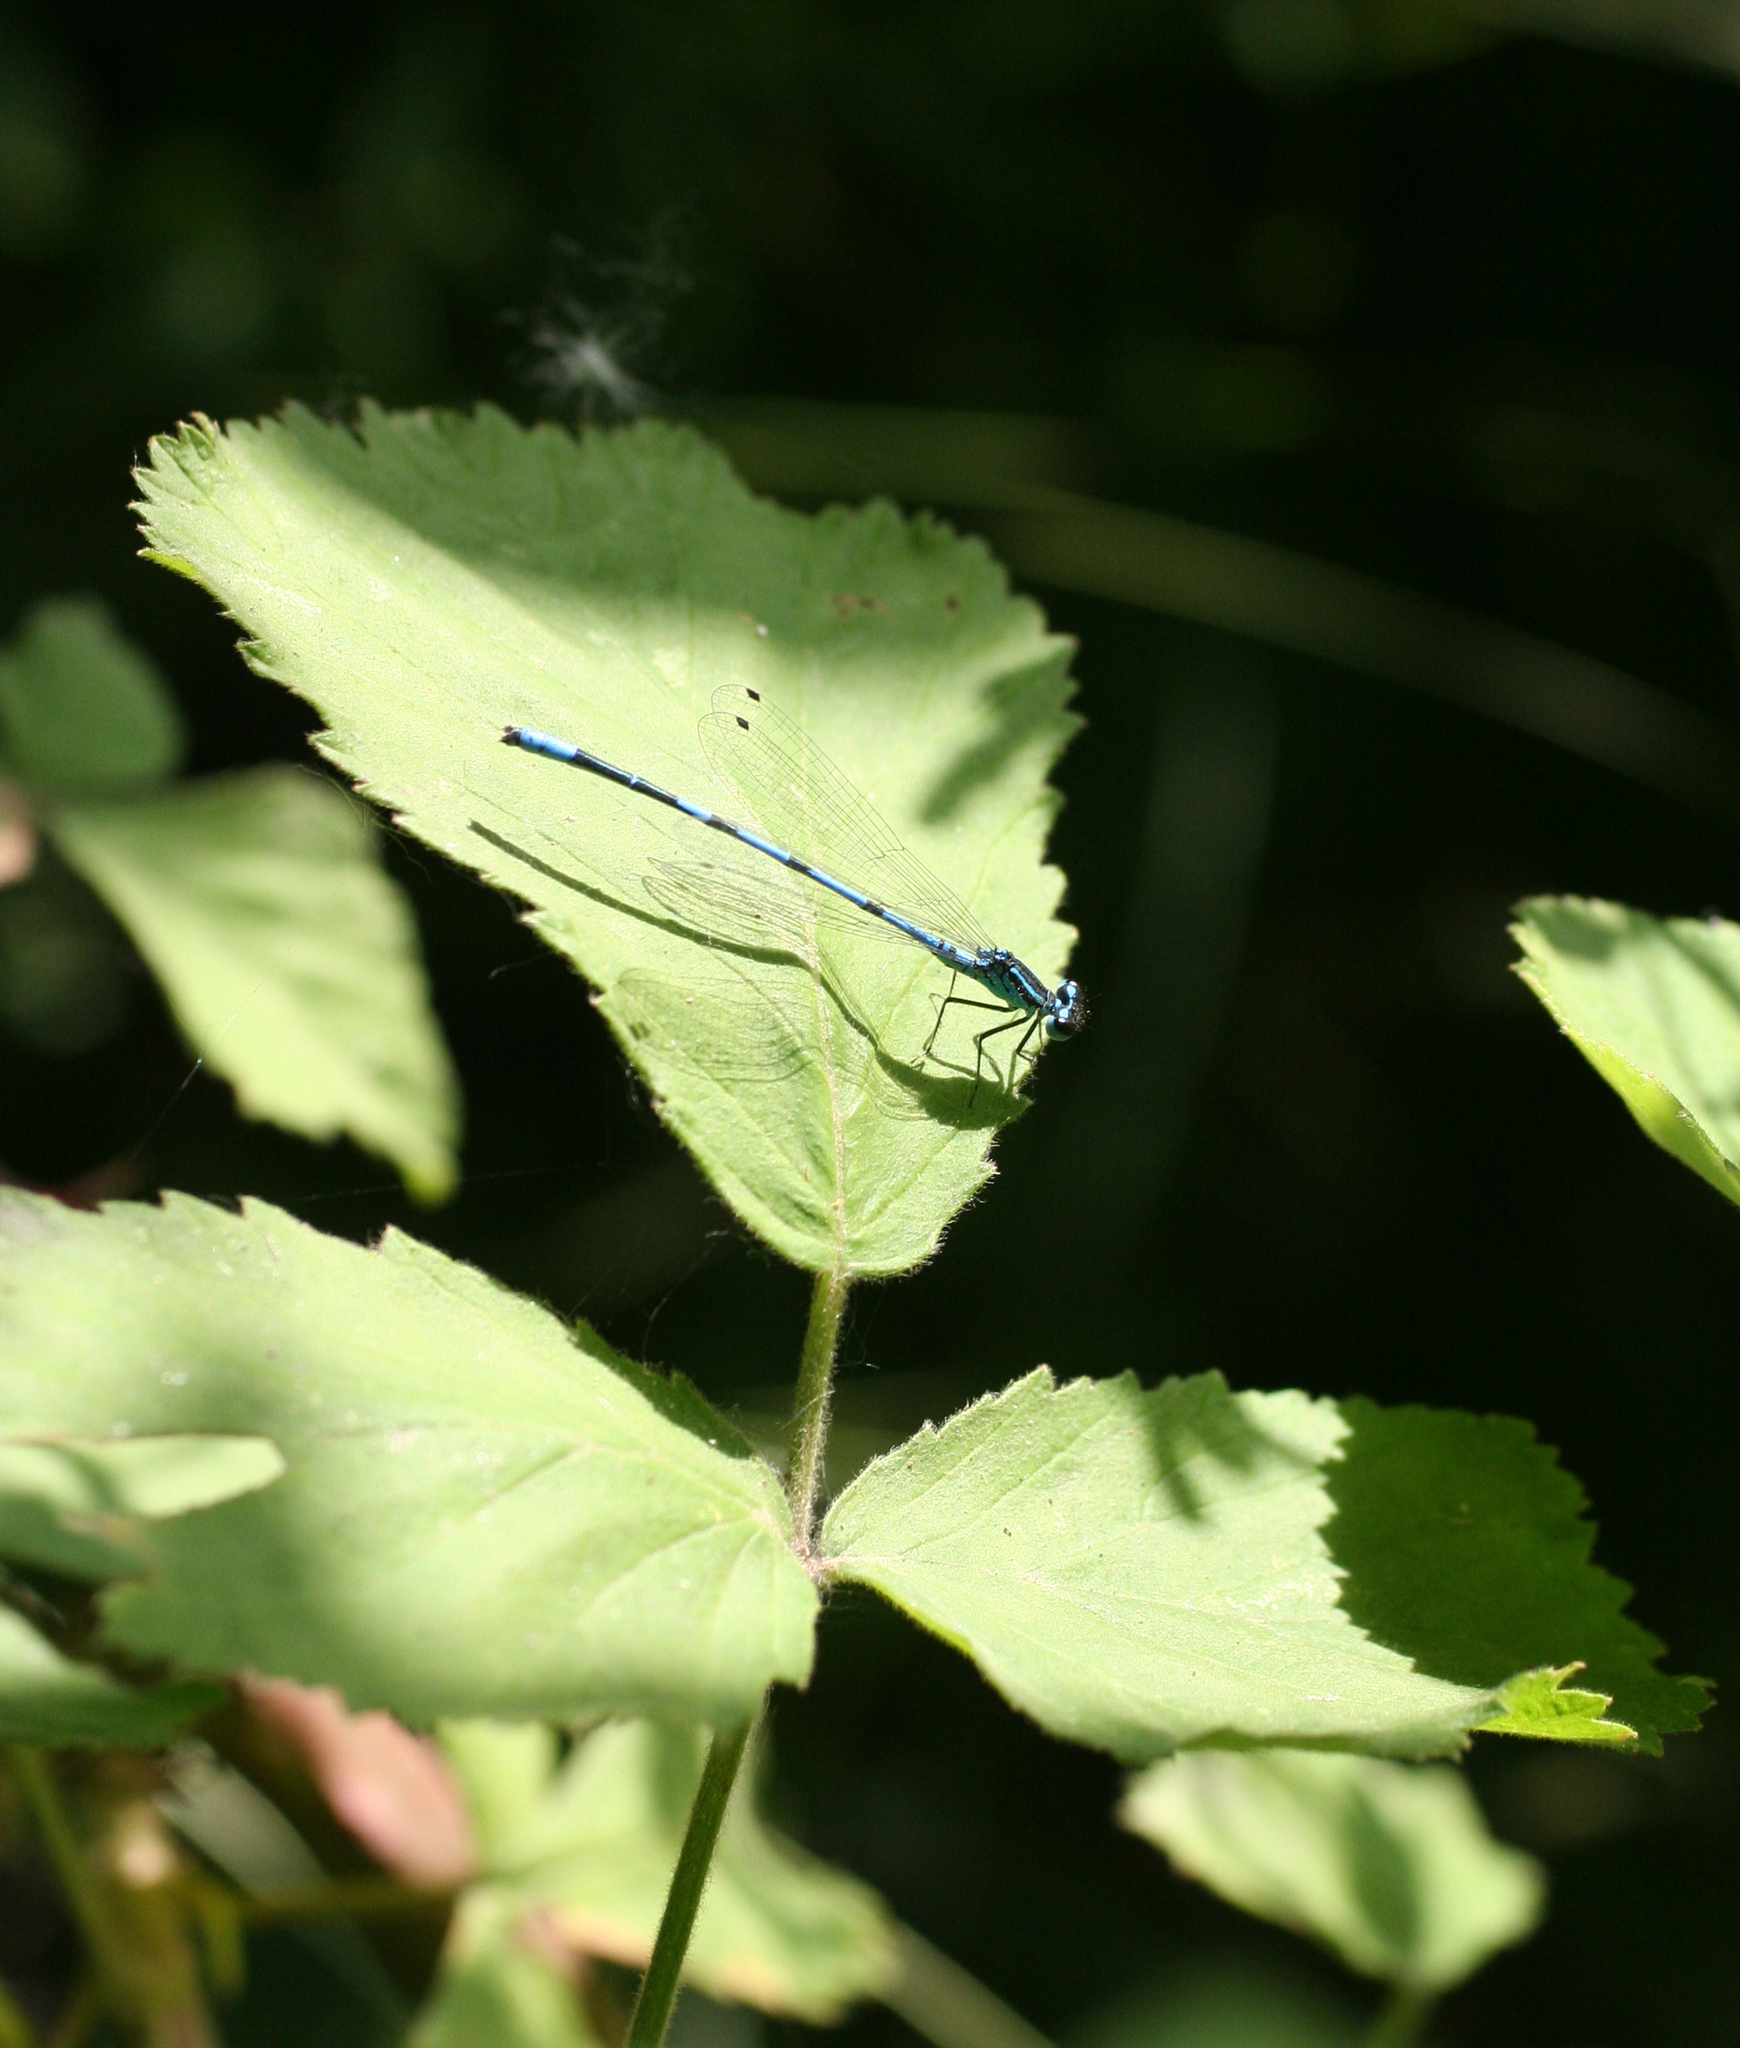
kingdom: Animalia
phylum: Arthropoda
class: Insecta
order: Odonata
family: Coenagrionidae
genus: Coenagrion
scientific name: Coenagrion australocaspicum
